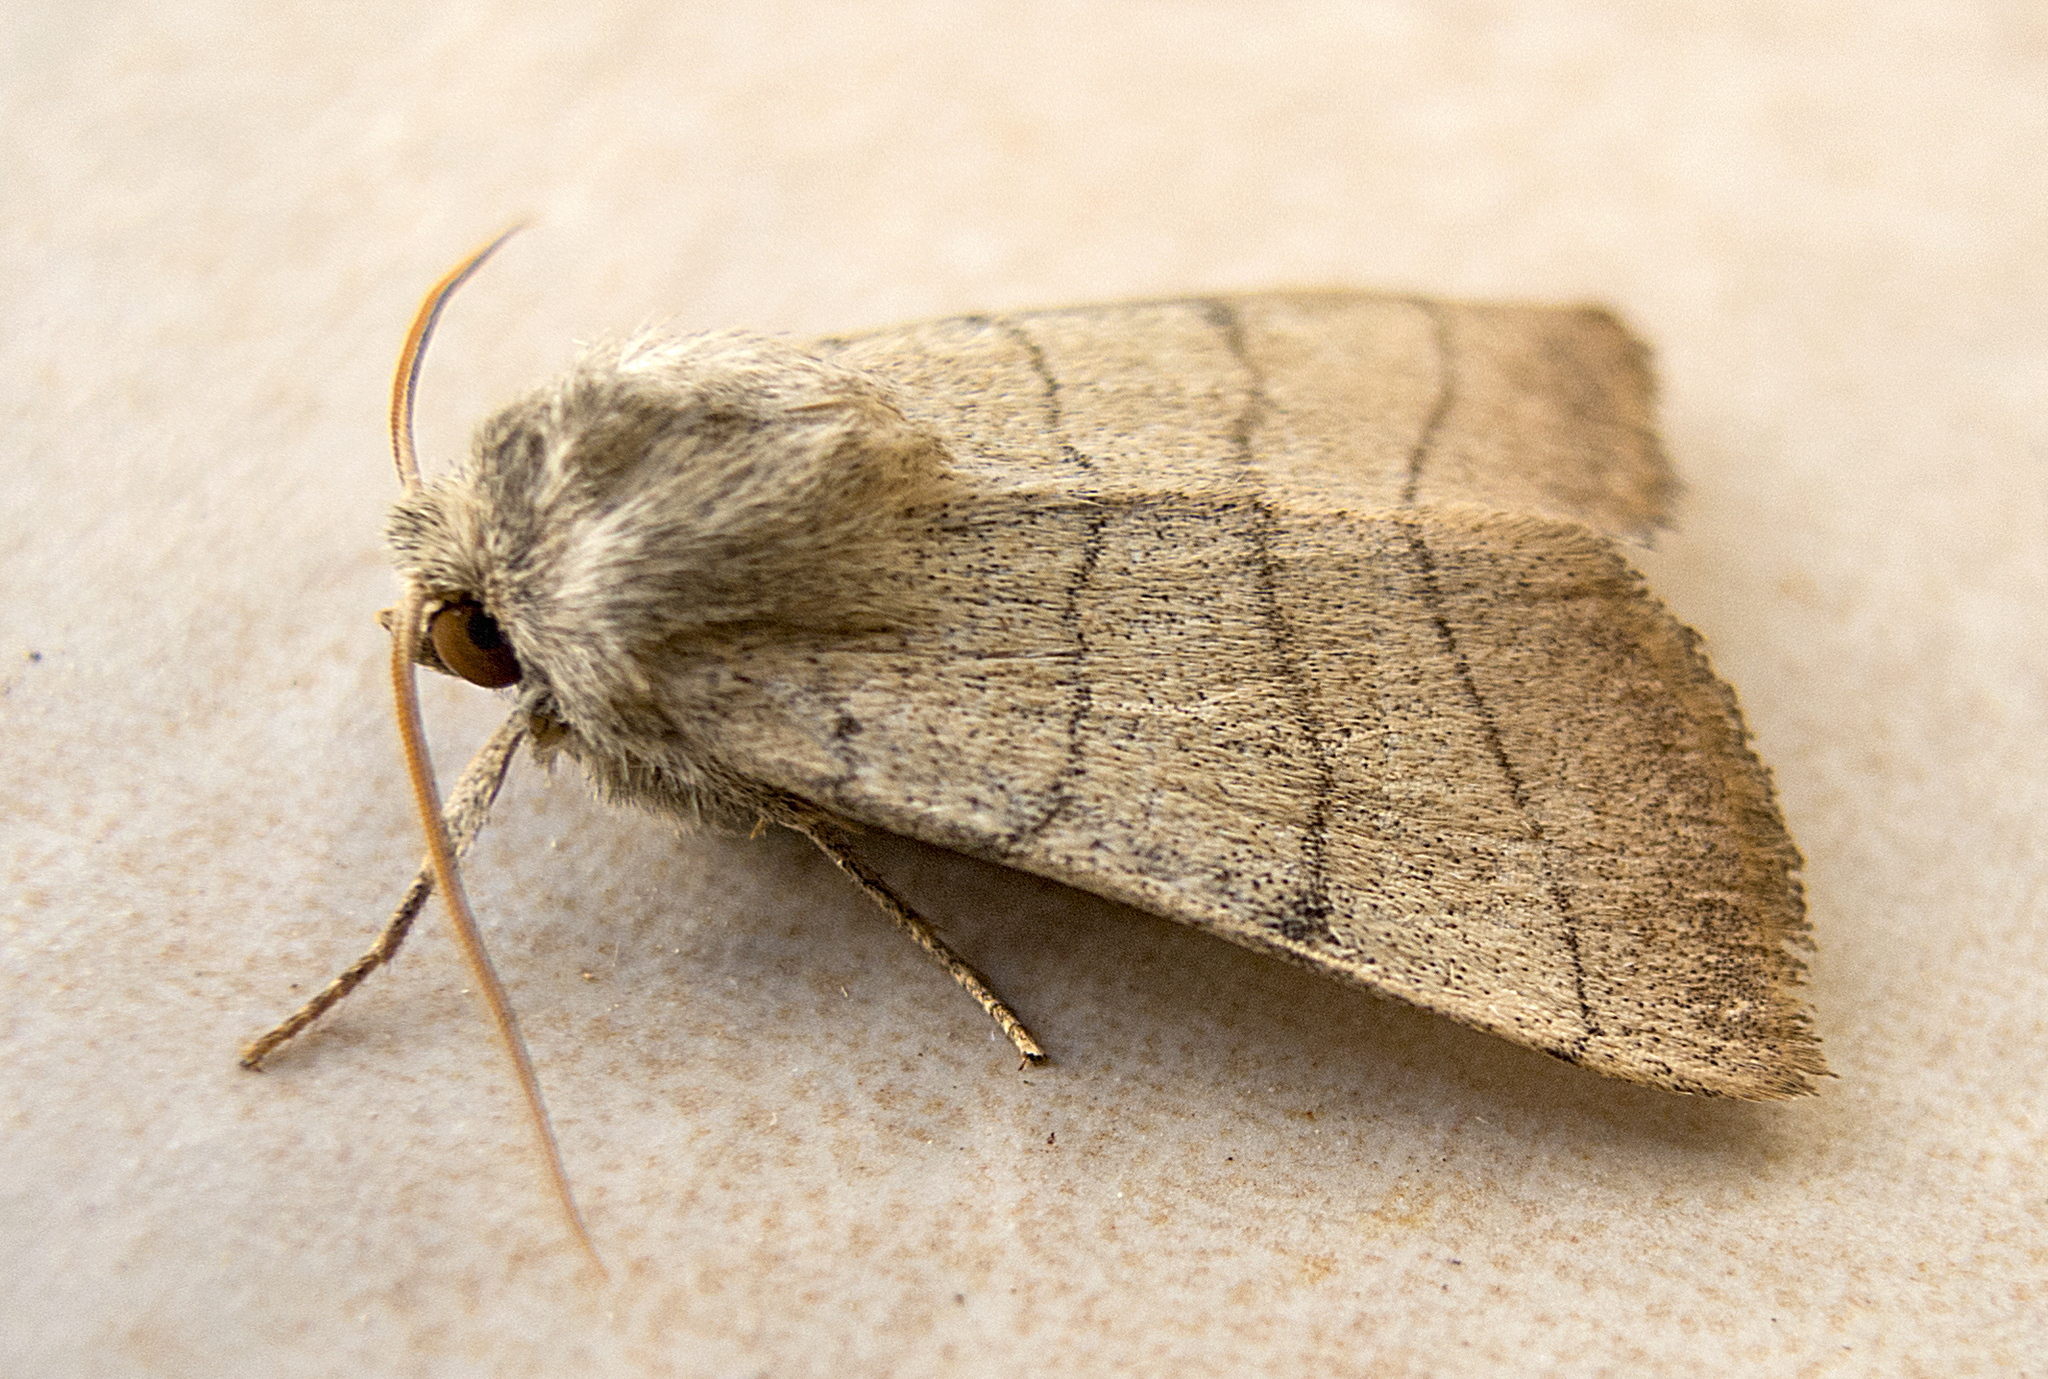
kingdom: Animalia
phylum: Arthropoda
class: Insecta
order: Lepidoptera
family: Noctuidae
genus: Charanyca
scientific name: Charanyca trigrammica
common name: Treble lines
